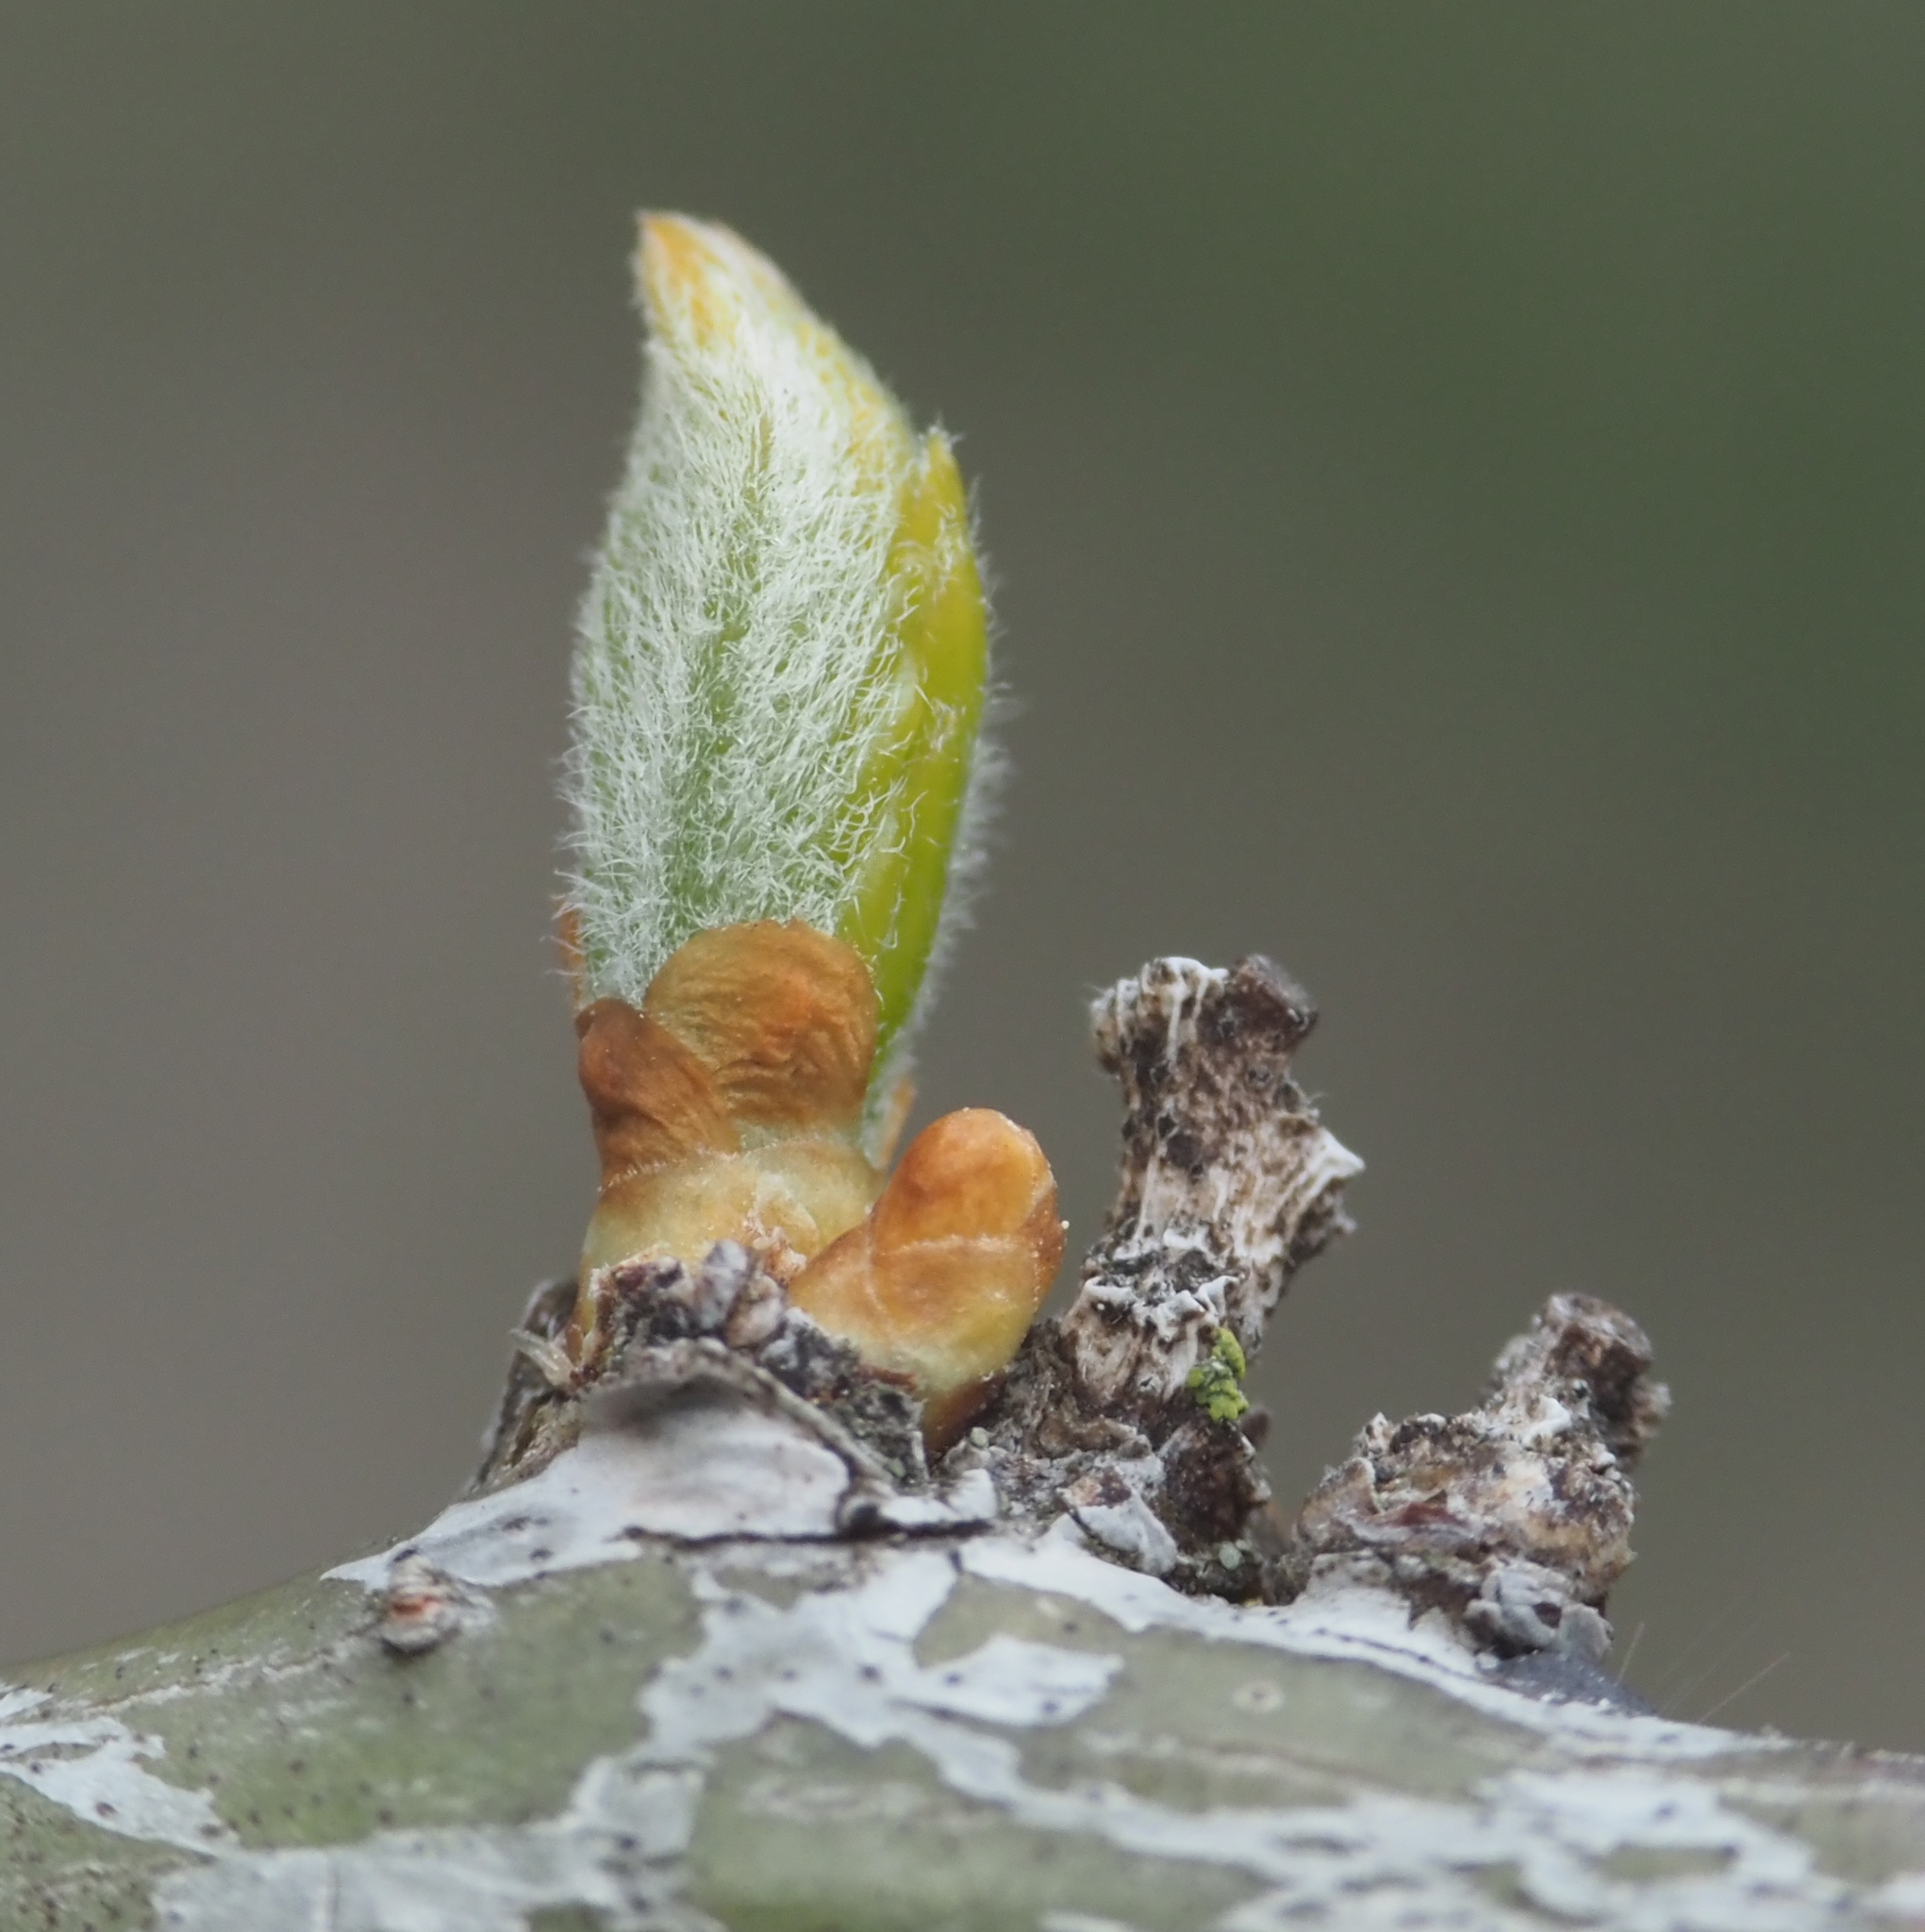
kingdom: Plantae
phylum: Tracheophyta
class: Magnoliopsida
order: Fabales
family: Fabaceae
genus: Gleditsia
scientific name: Gleditsia triacanthos
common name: Common honeylocust
